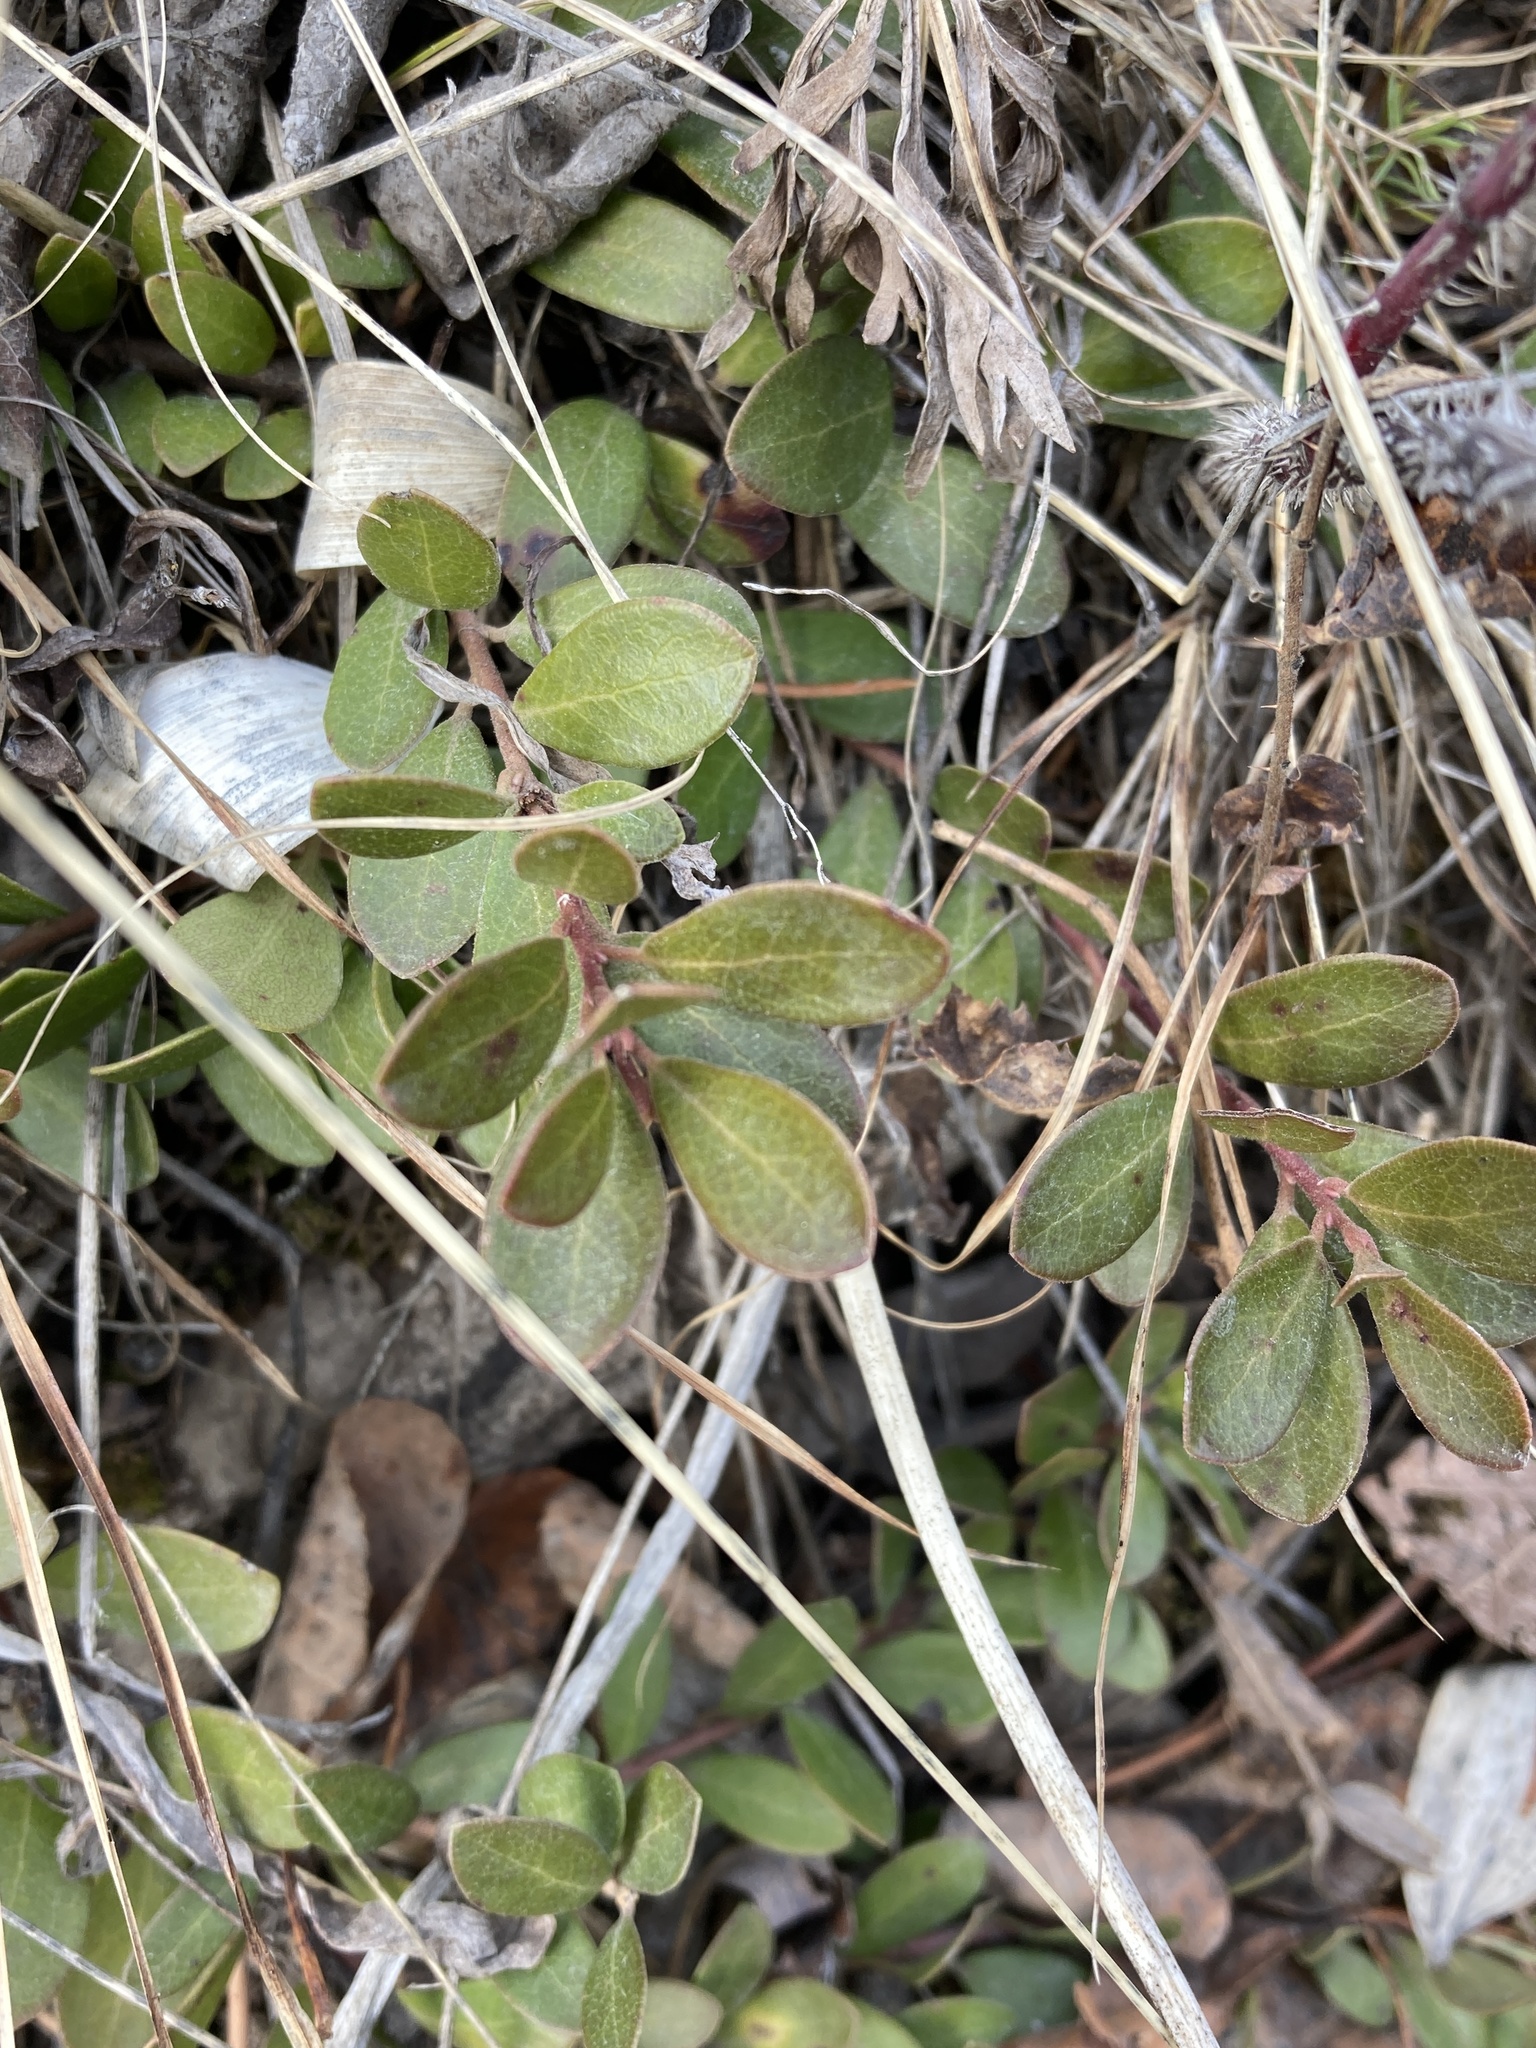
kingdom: Plantae
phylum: Tracheophyta
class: Magnoliopsida
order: Ericales
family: Ericaceae
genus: Arctostaphylos
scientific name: Arctostaphylos uva-ursi
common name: Bearberry
